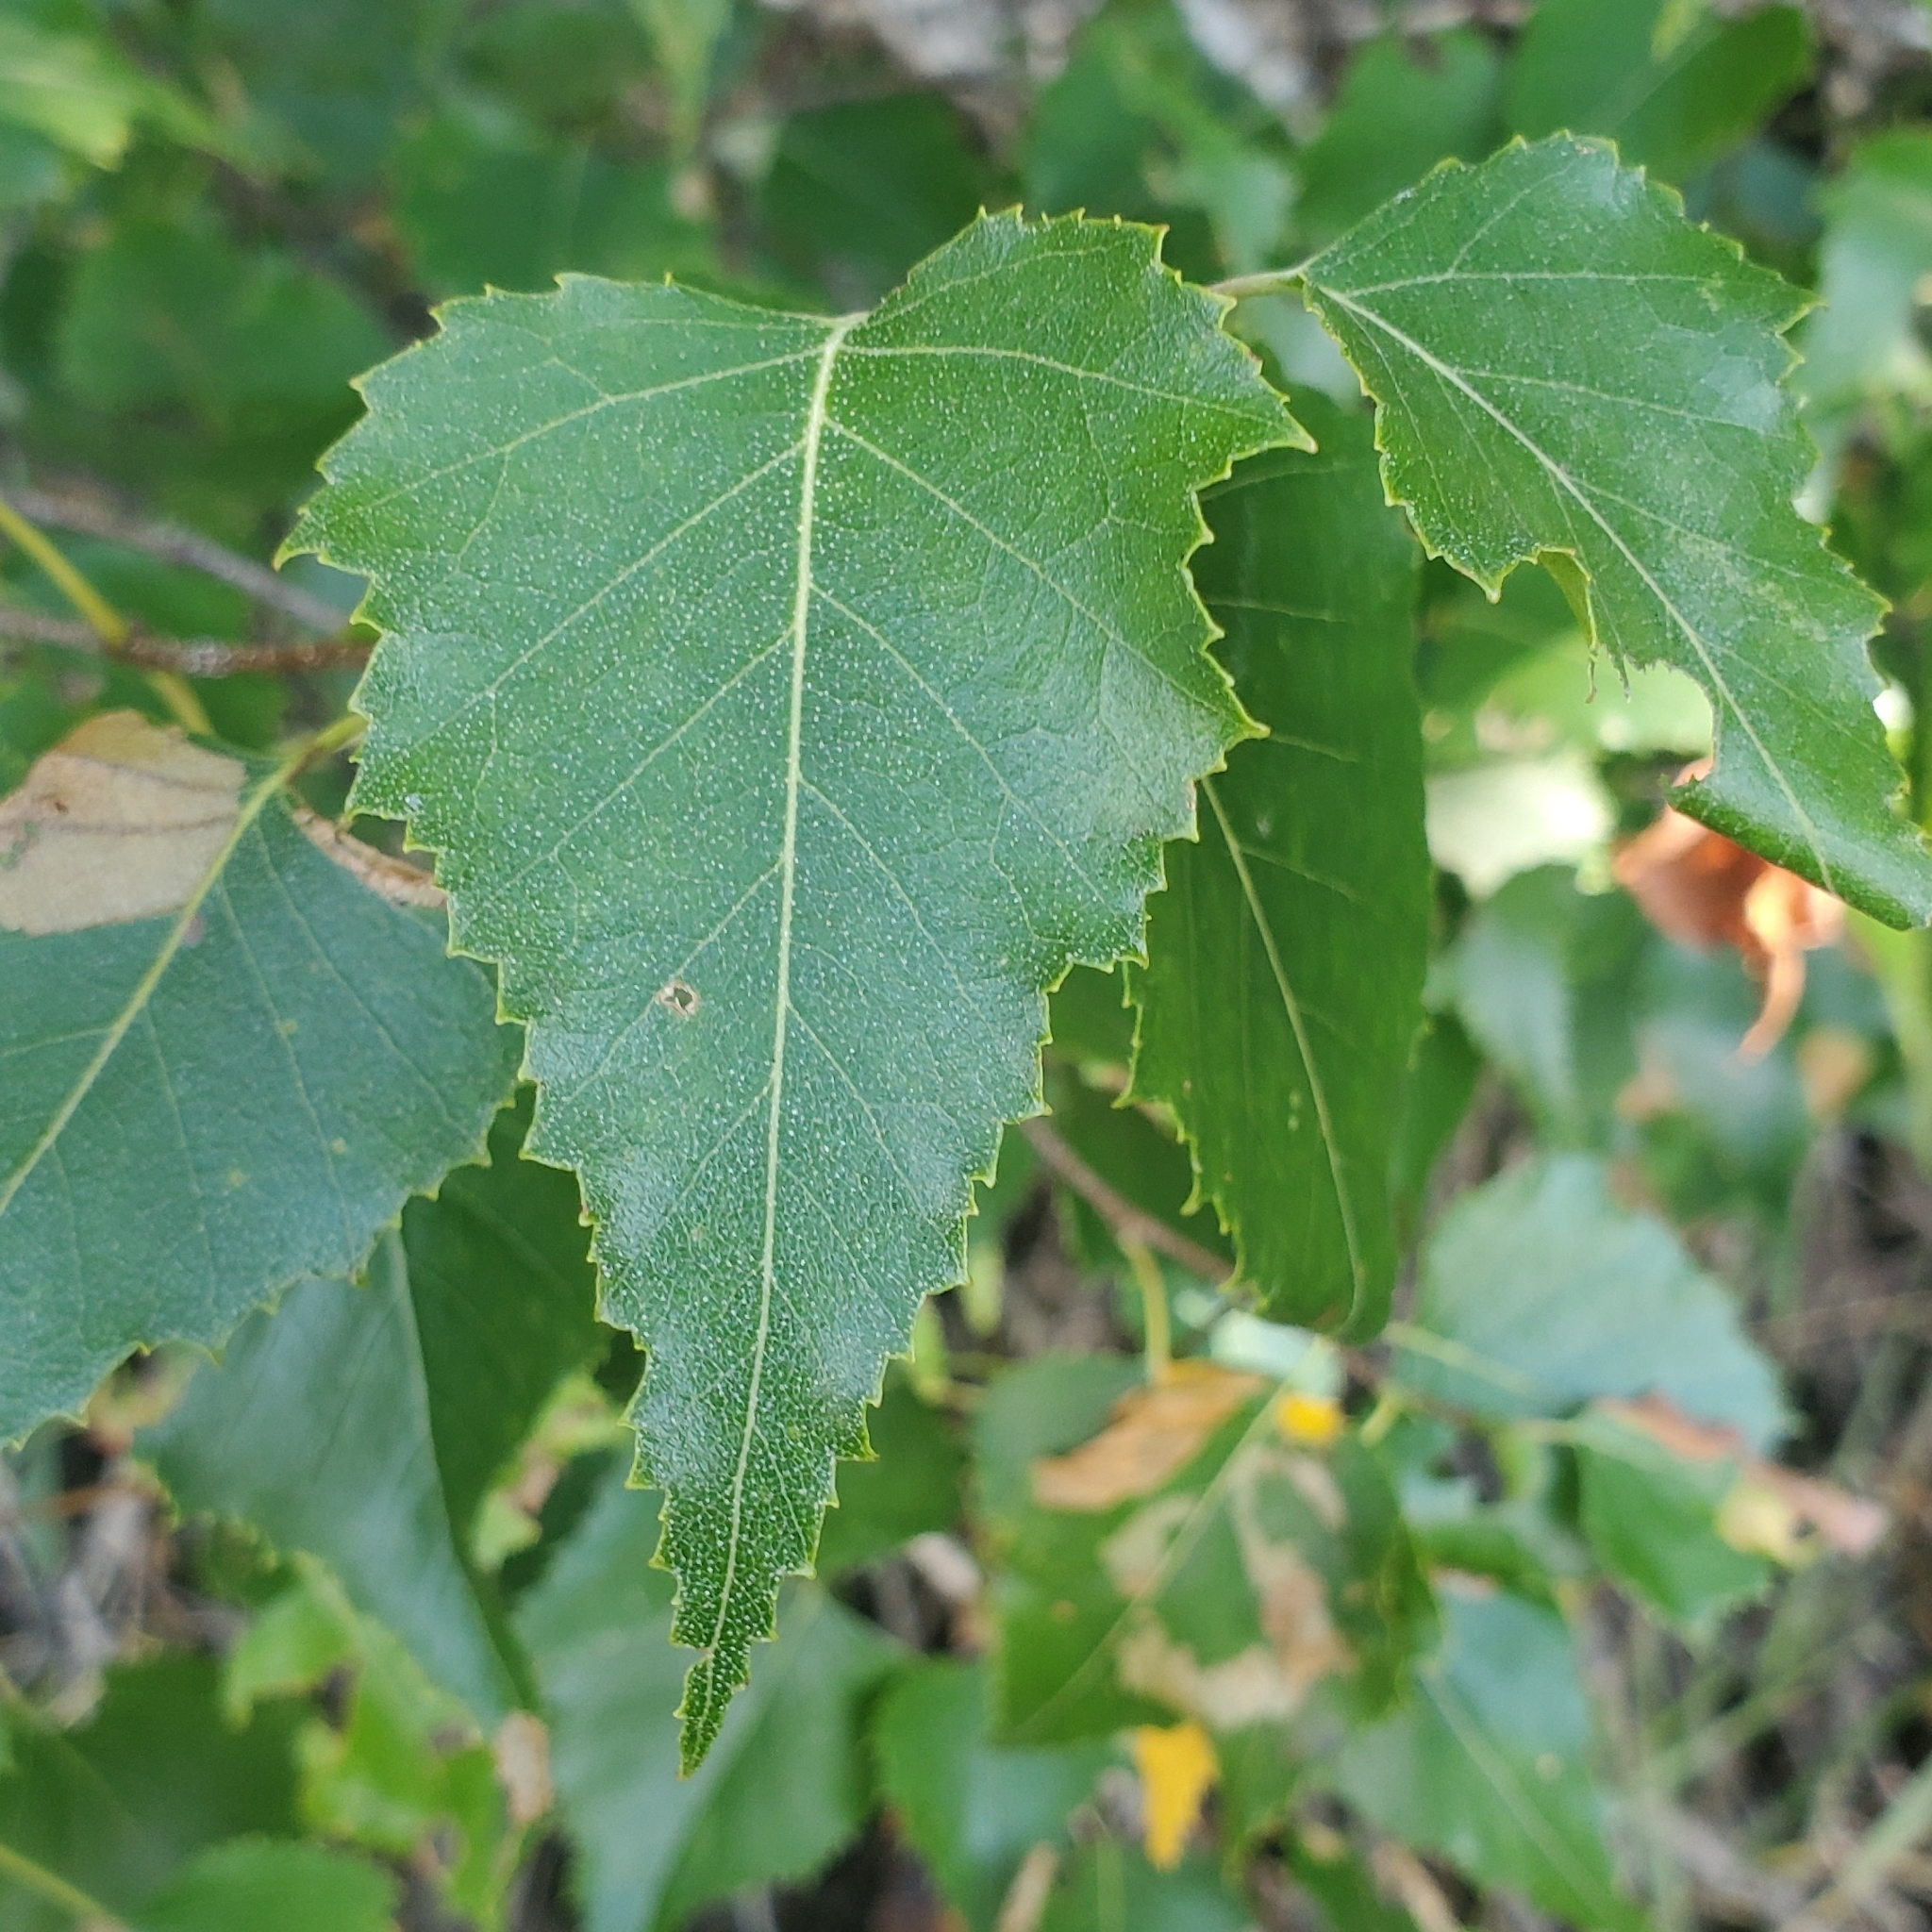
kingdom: Plantae
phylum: Tracheophyta
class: Magnoliopsida
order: Fagales
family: Betulaceae
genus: Betula
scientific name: Betula populifolia
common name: Fire birch
